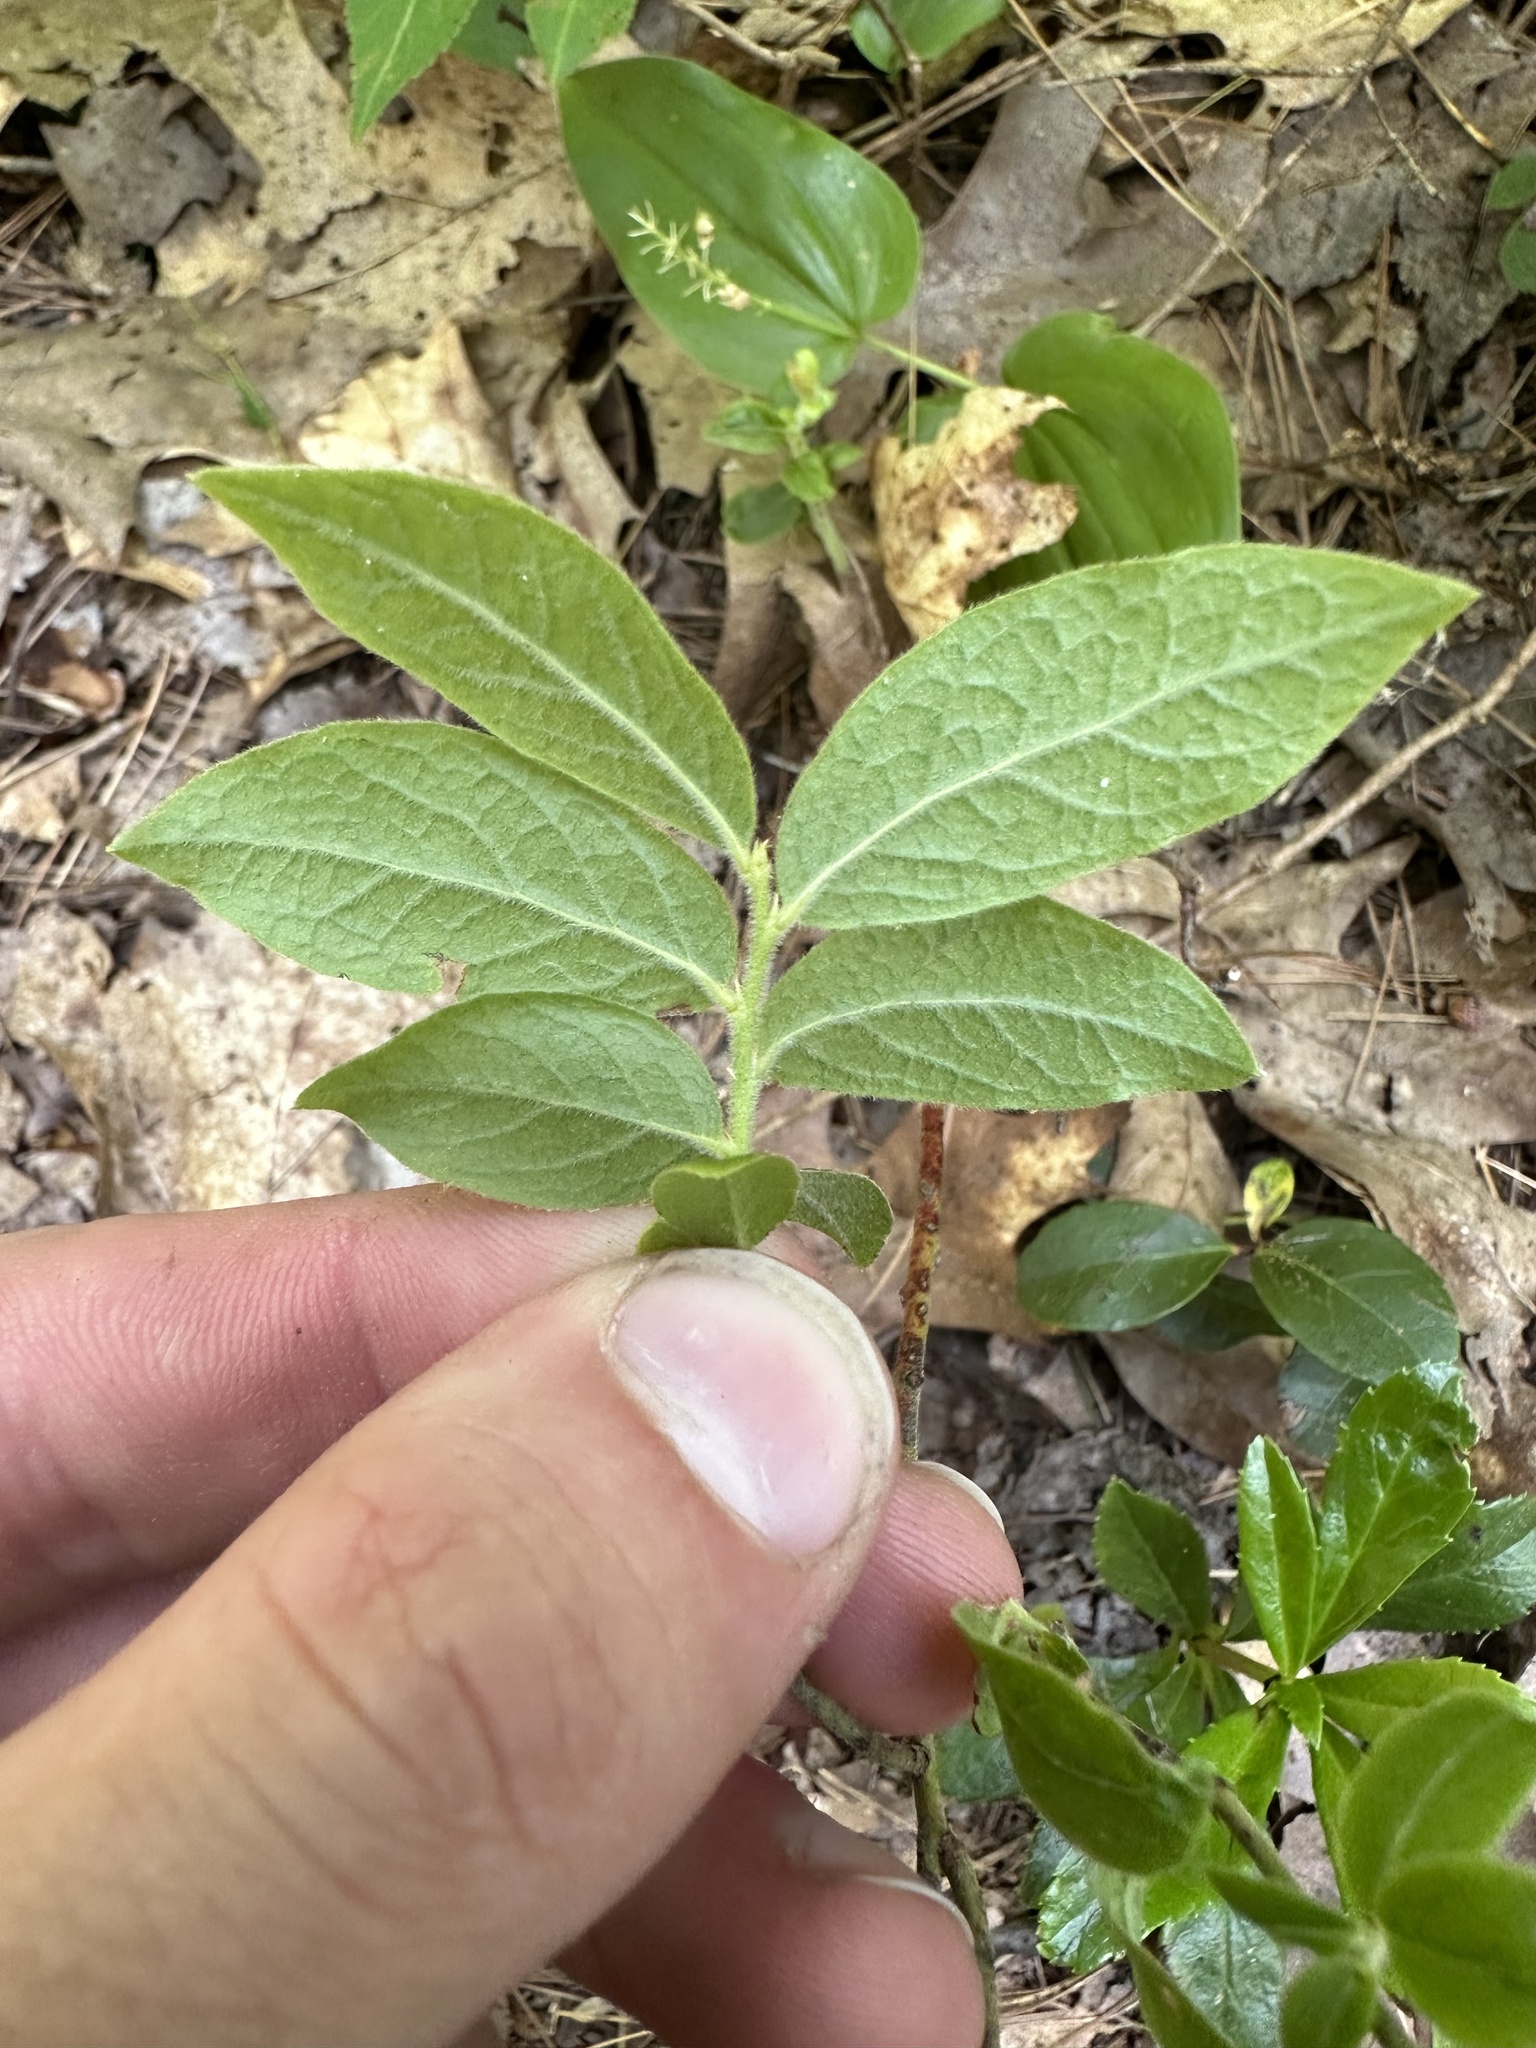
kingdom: Plantae
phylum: Tracheophyta
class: Magnoliopsida
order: Ericales
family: Ericaceae
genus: Vaccinium
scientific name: Vaccinium myrtilloides
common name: Canada blueberry
